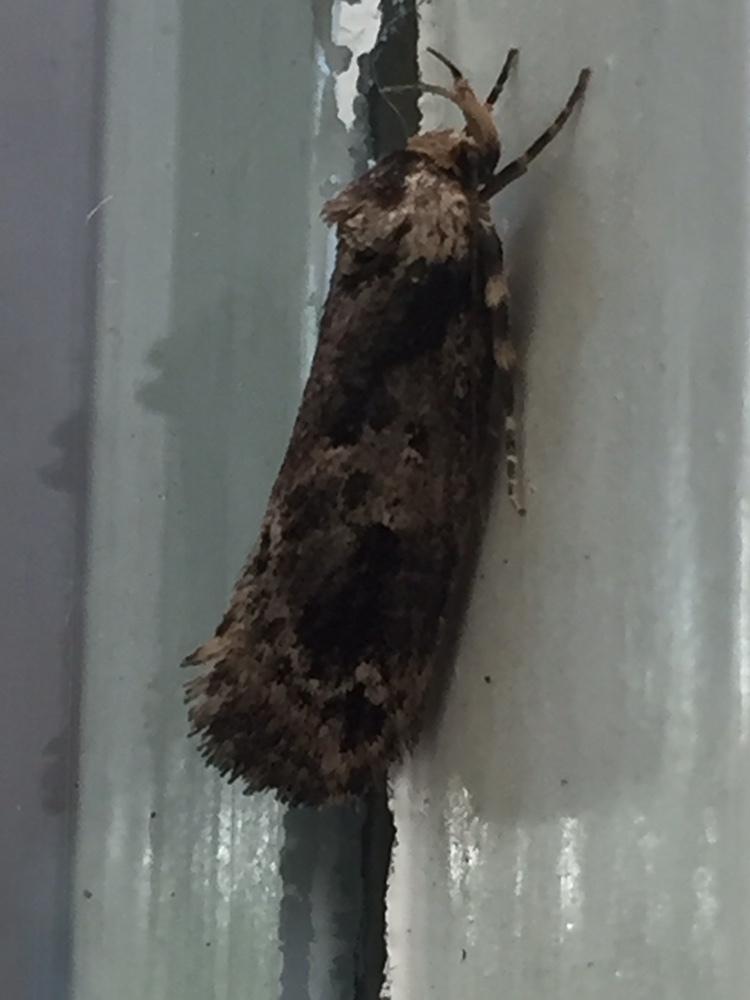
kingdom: Animalia
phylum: Arthropoda
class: Insecta
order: Lepidoptera
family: Oecophoridae
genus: Barea
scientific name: Barea consignatella
